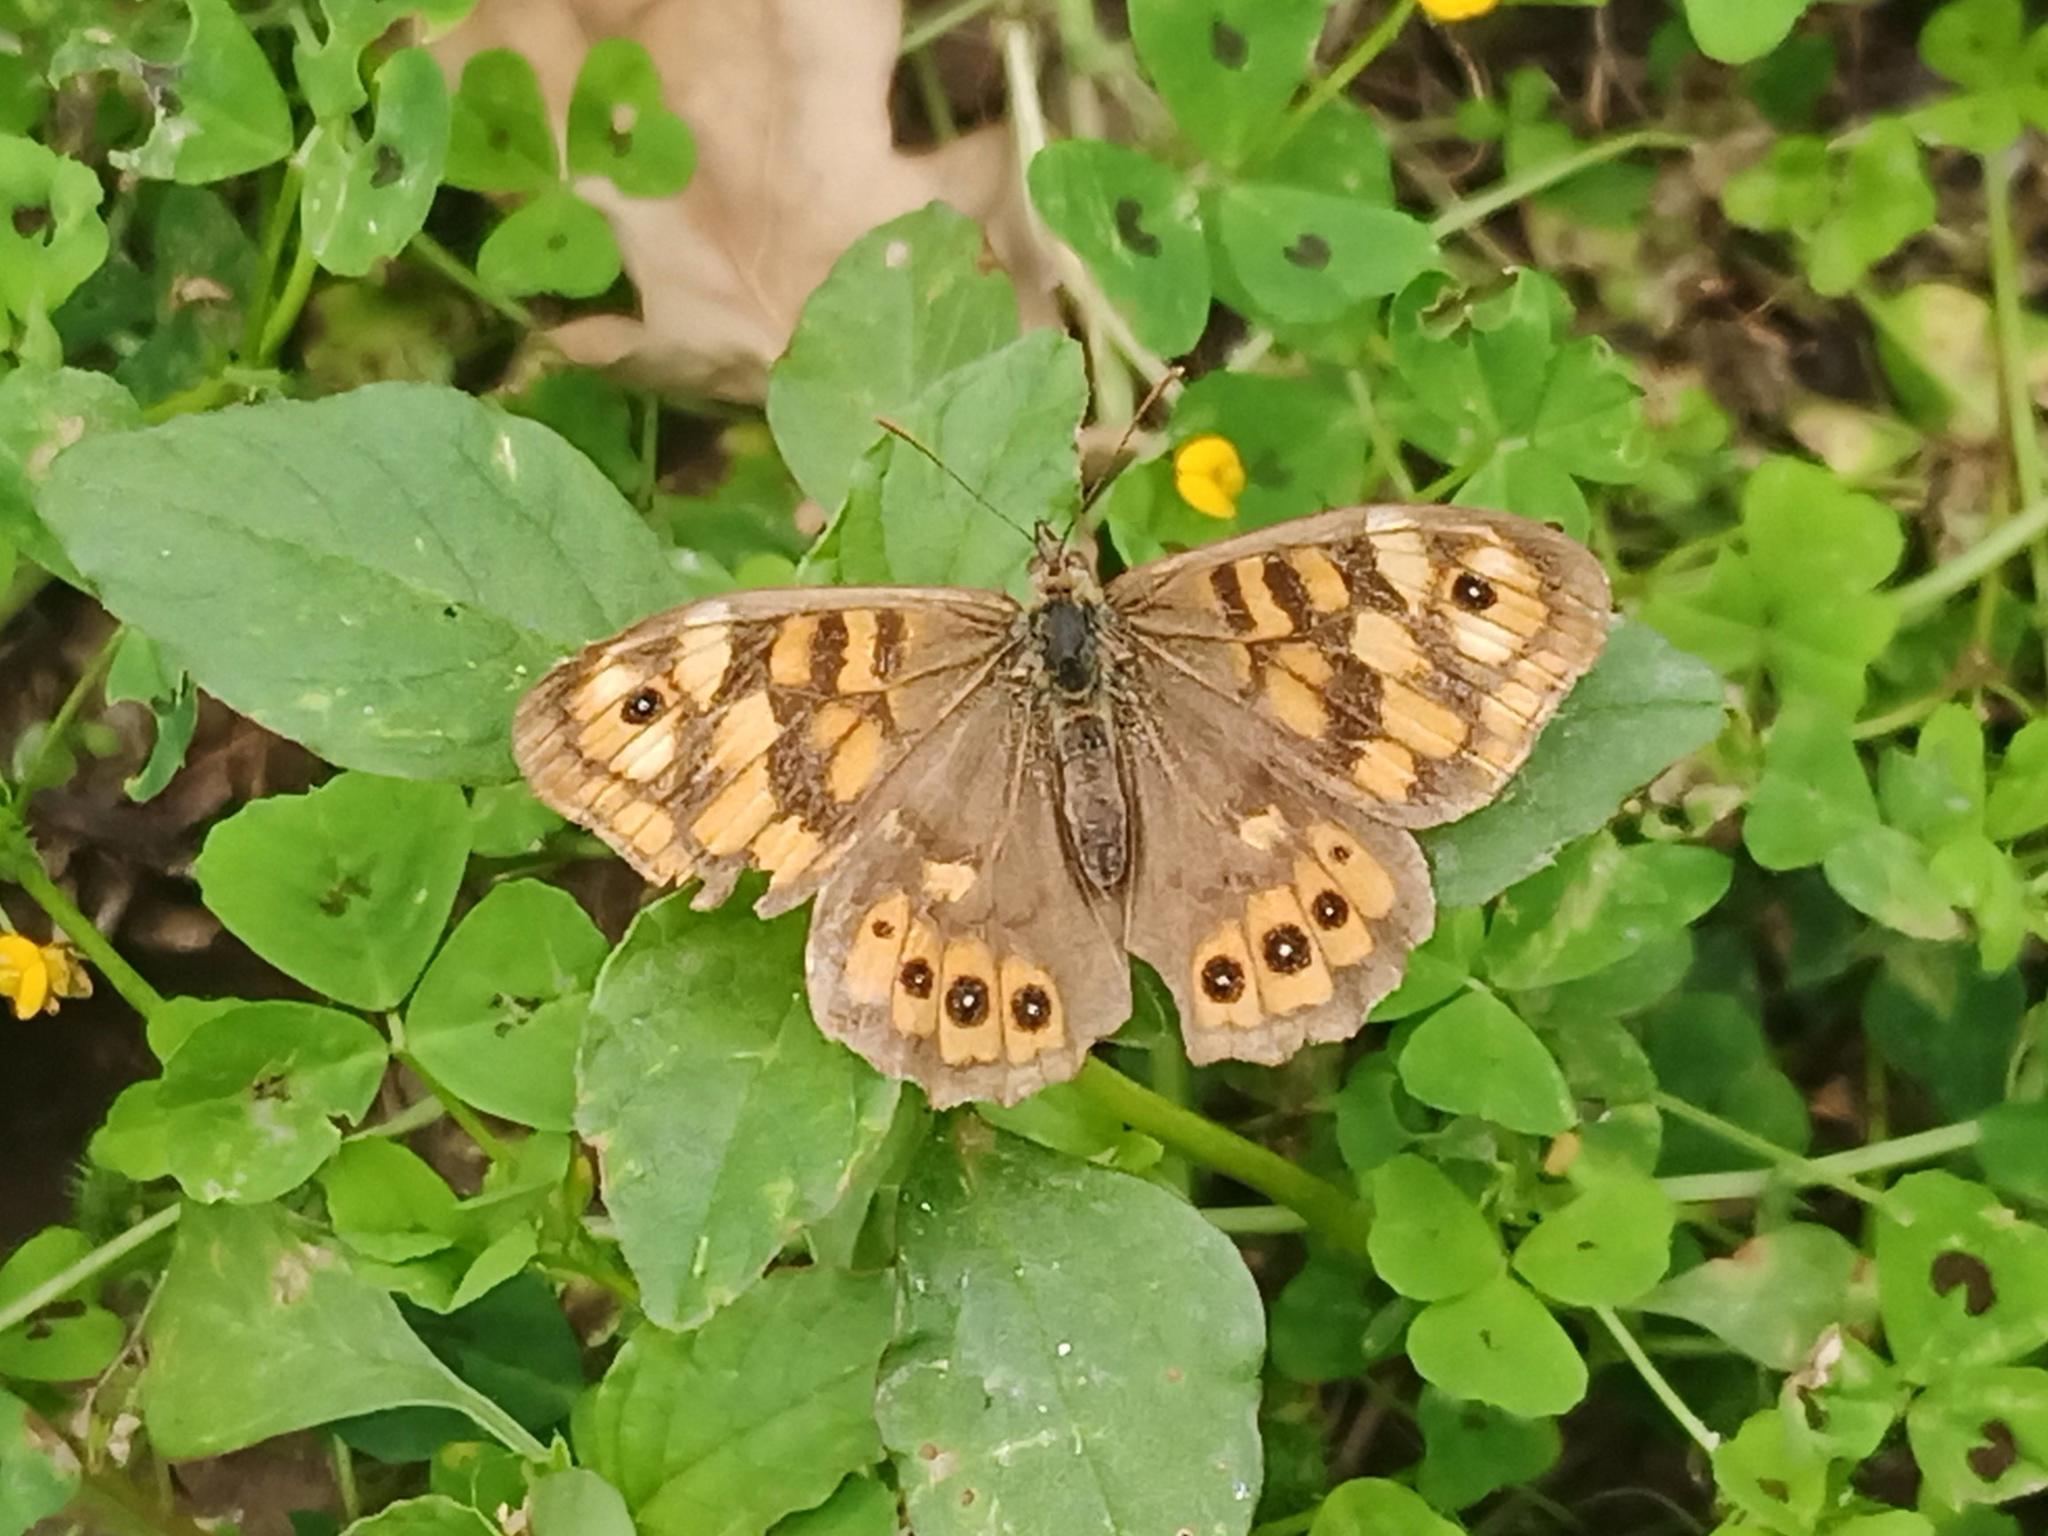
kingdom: Animalia
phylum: Arthropoda
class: Insecta
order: Lepidoptera
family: Nymphalidae
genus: Pararge
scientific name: Pararge aegeria
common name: Speckled wood
